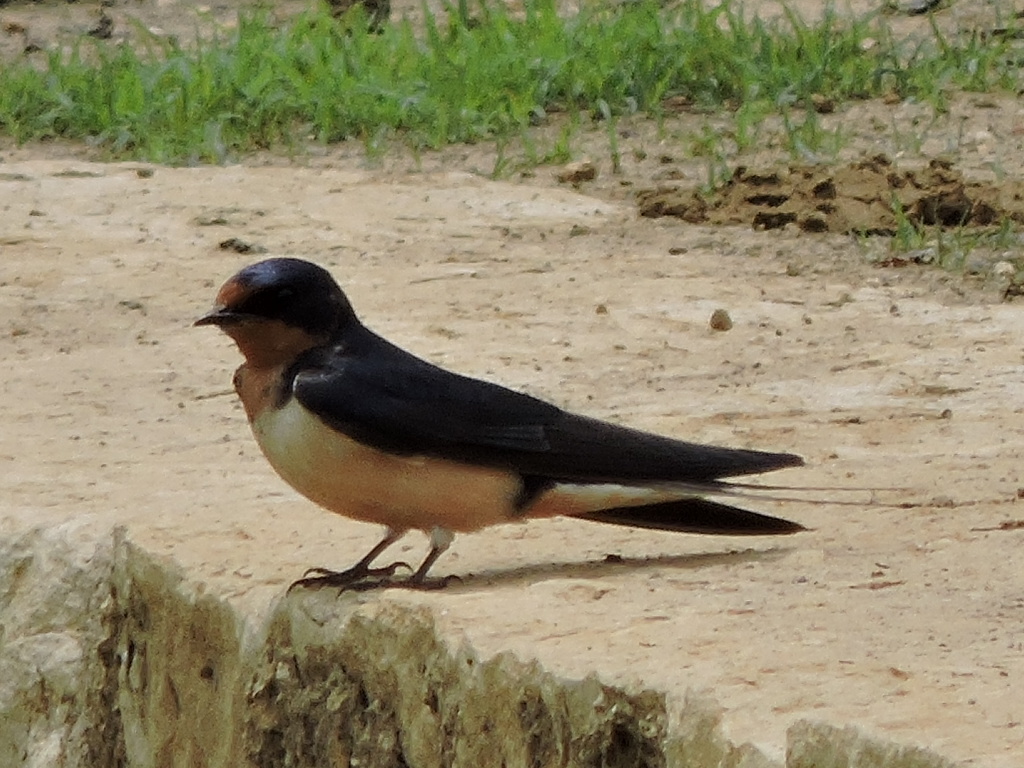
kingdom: Animalia
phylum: Chordata
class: Aves
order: Passeriformes
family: Hirundinidae
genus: Hirundo
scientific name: Hirundo rustica
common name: Barn swallow
